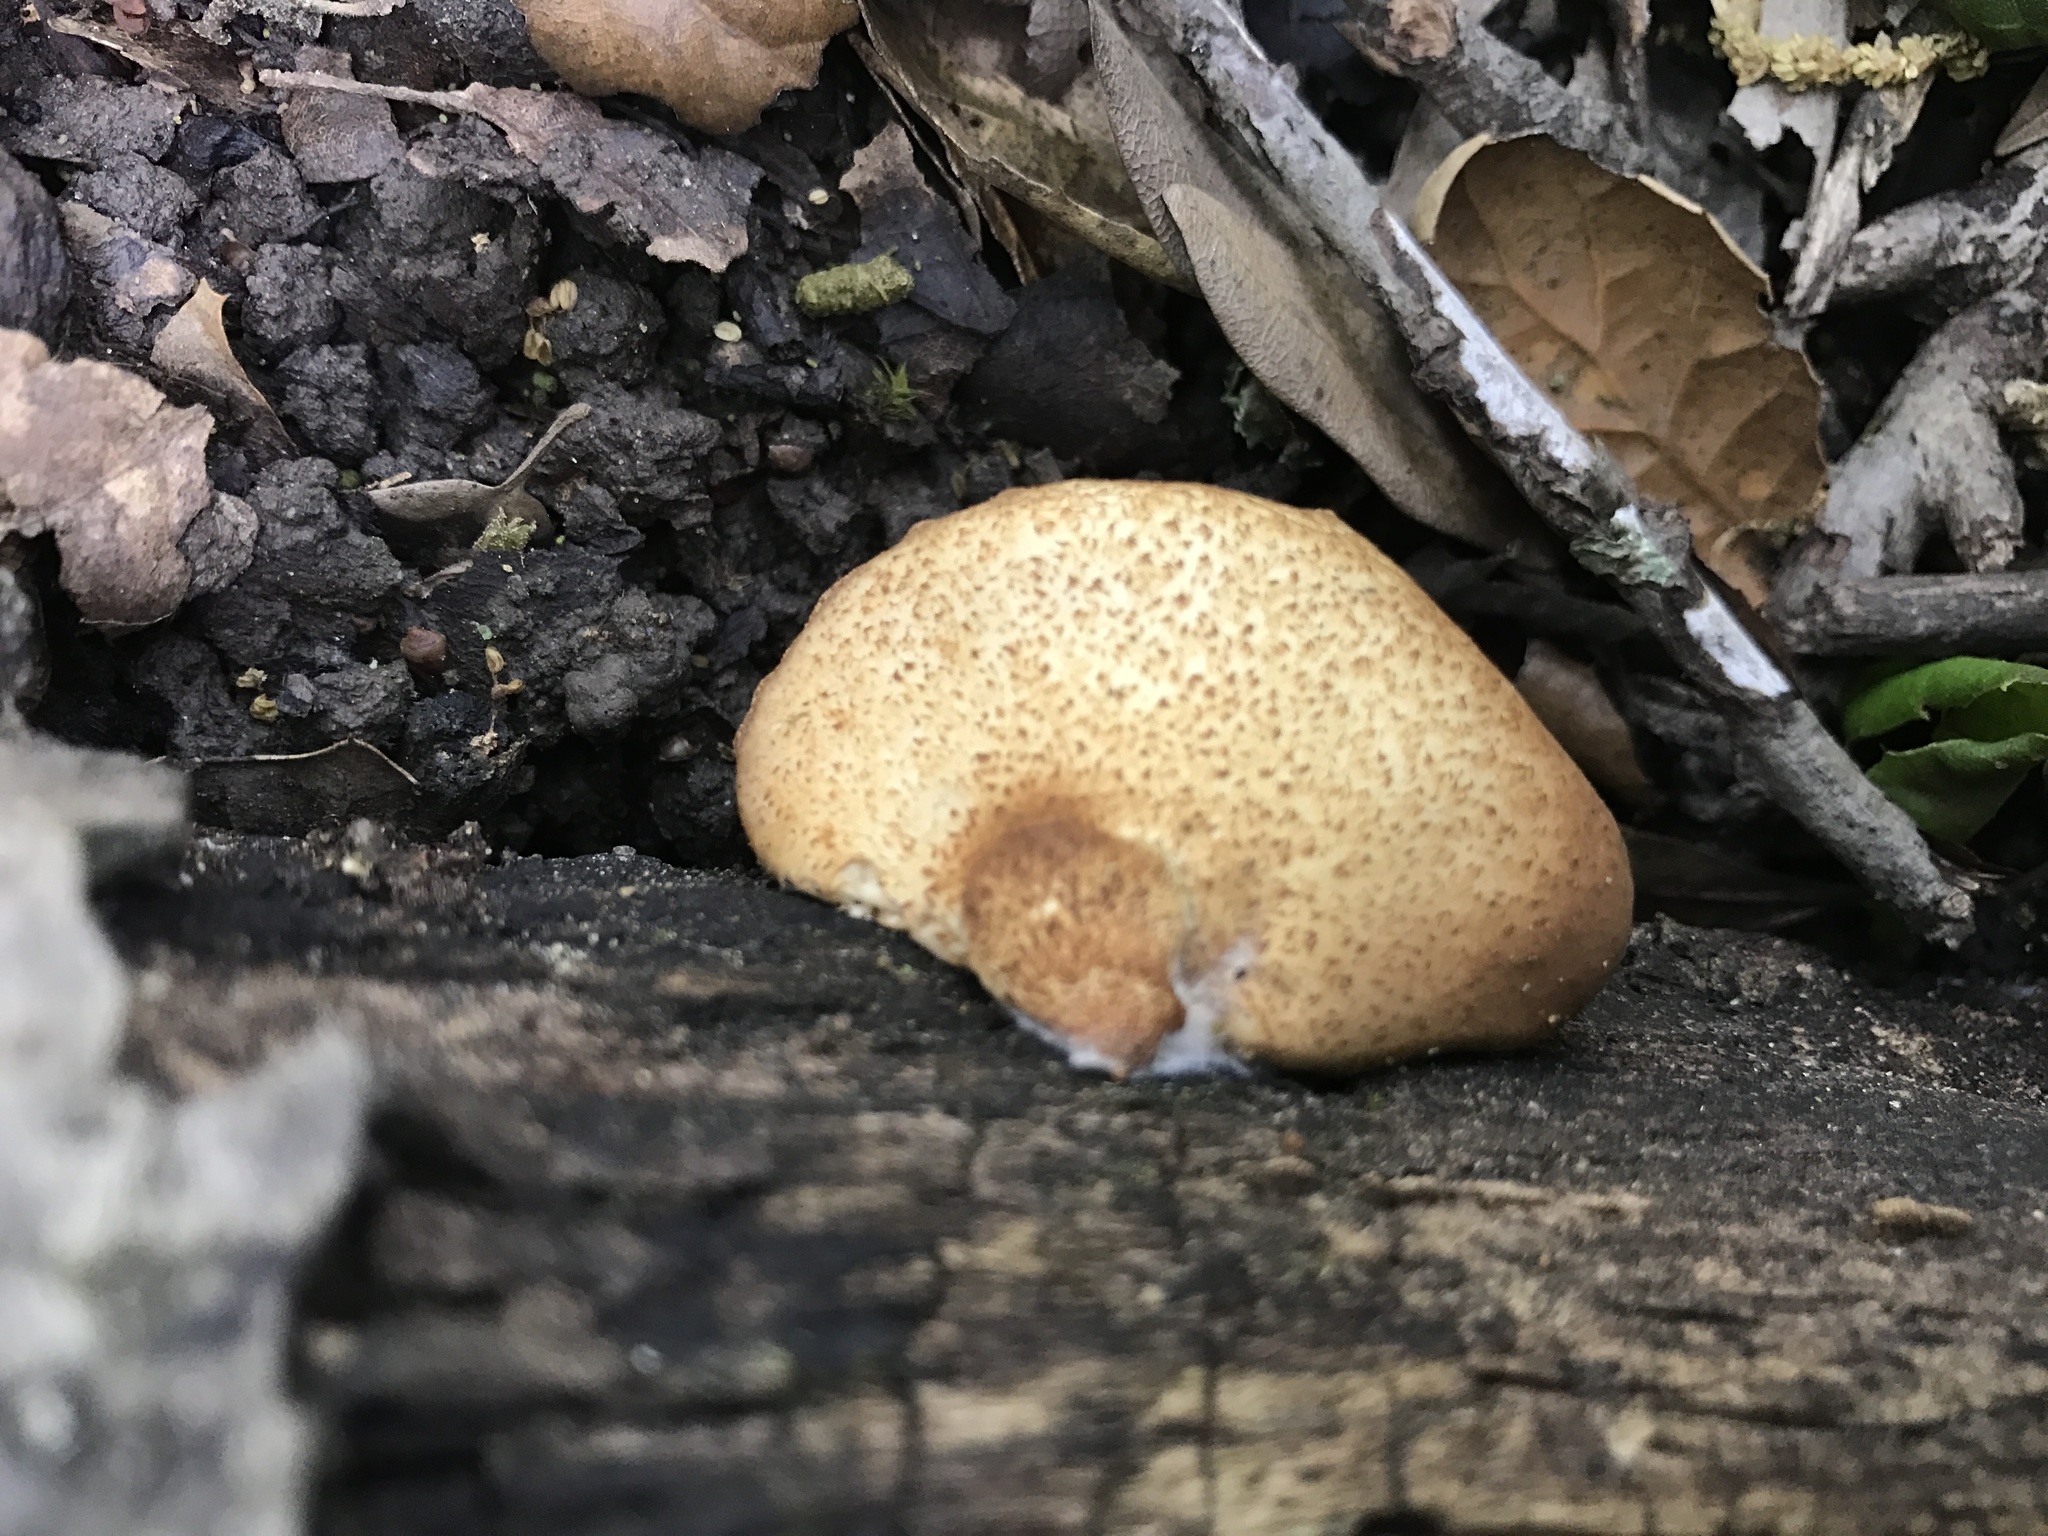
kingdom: Fungi
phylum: Basidiomycota
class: Agaricomycetes
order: Agaricales
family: Crepidotaceae
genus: Crepidotus
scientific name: Crepidotus mollis
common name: Peeling oysterling
